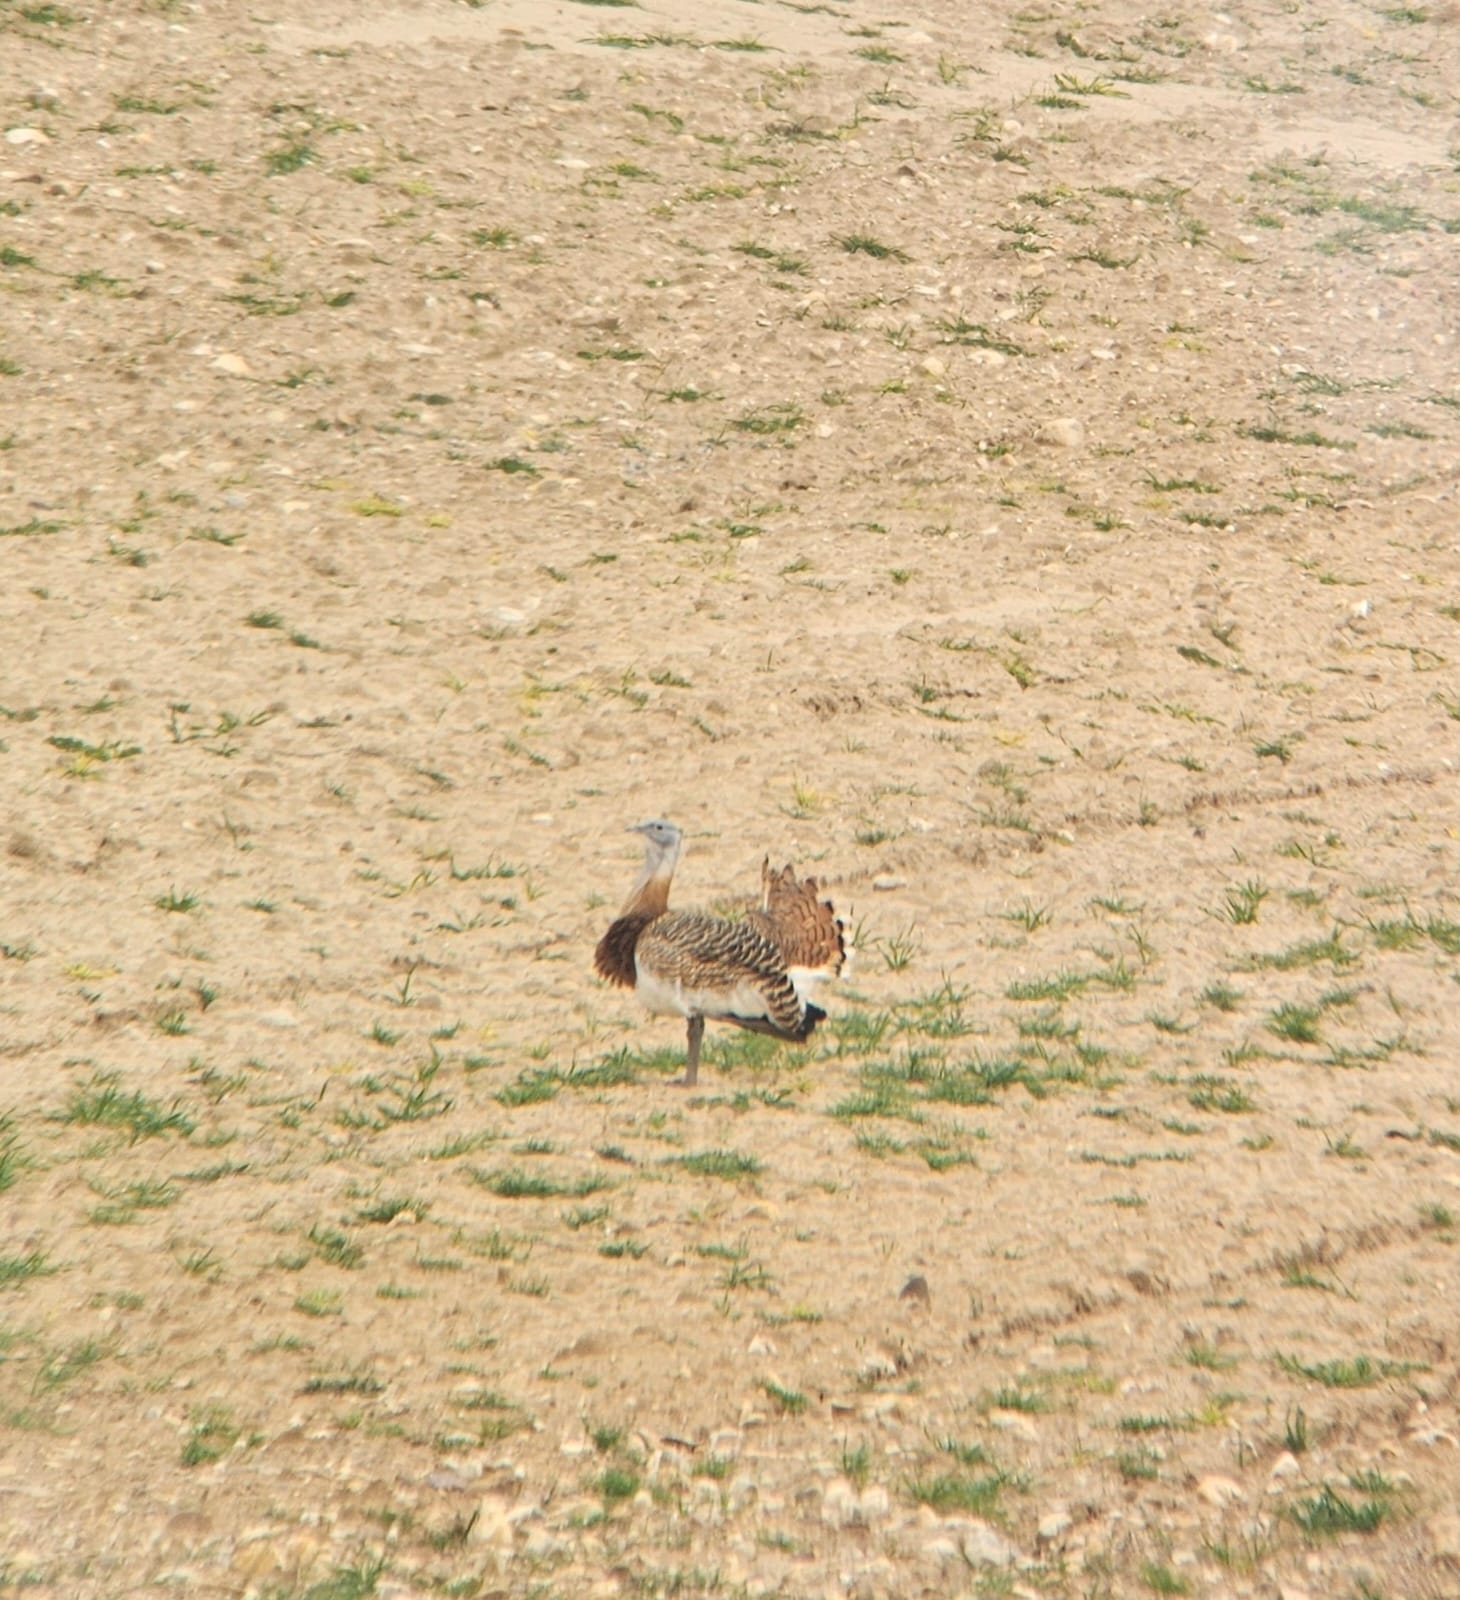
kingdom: Animalia
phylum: Chordata
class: Aves
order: Otidiformes
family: Otididae
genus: Otis
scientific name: Otis tarda
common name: Great bustard
